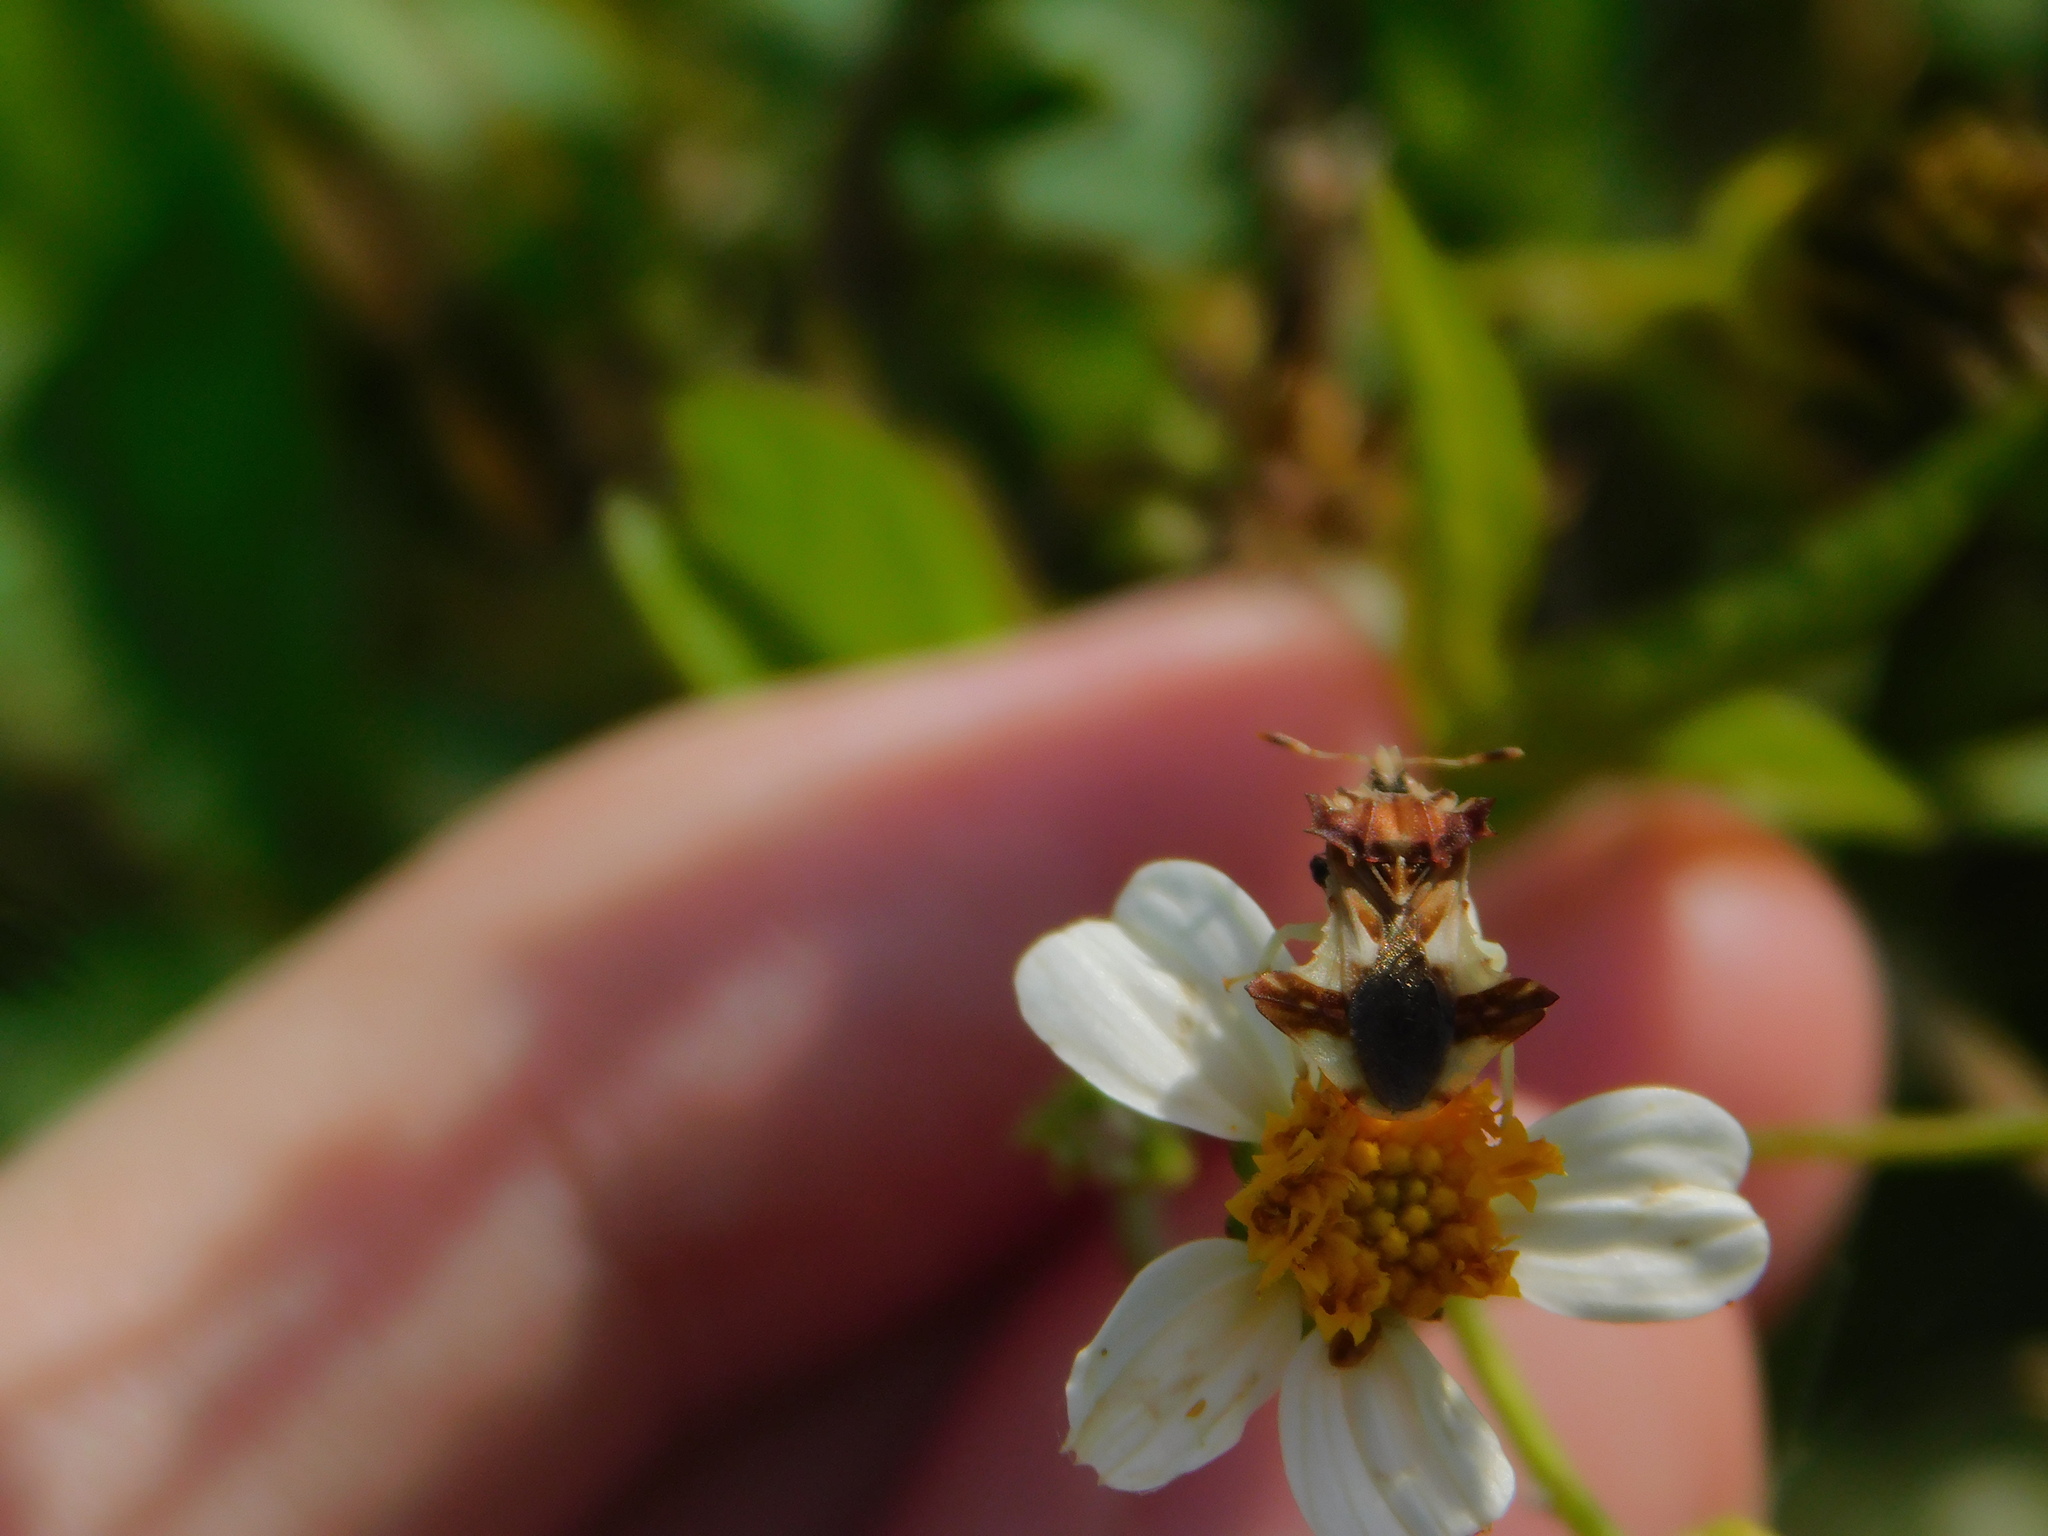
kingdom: Plantae
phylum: Tracheophyta
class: Magnoliopsida
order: Asterales
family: Asteraceae
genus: Bidens
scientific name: Bidens alba
